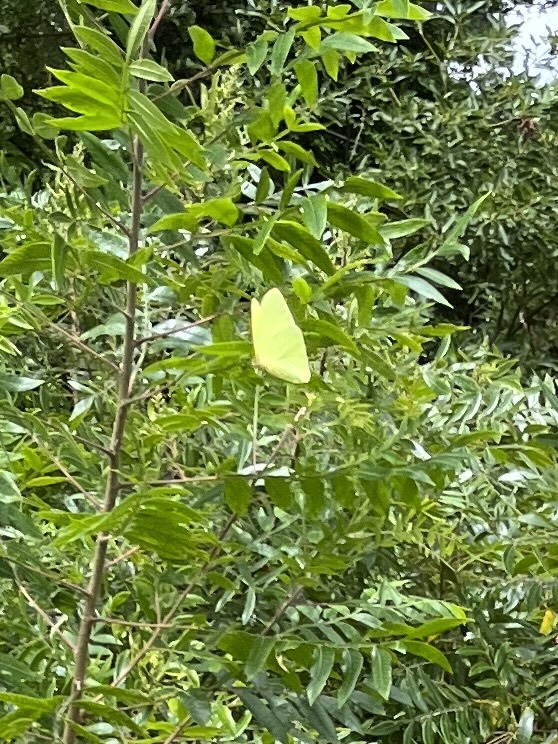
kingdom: Animalia
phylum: Arthropoda
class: Insecta
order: Lepidoptera
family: Pieridae
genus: Phoebis
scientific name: Phoebis sennae
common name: Cloudless sulphur
